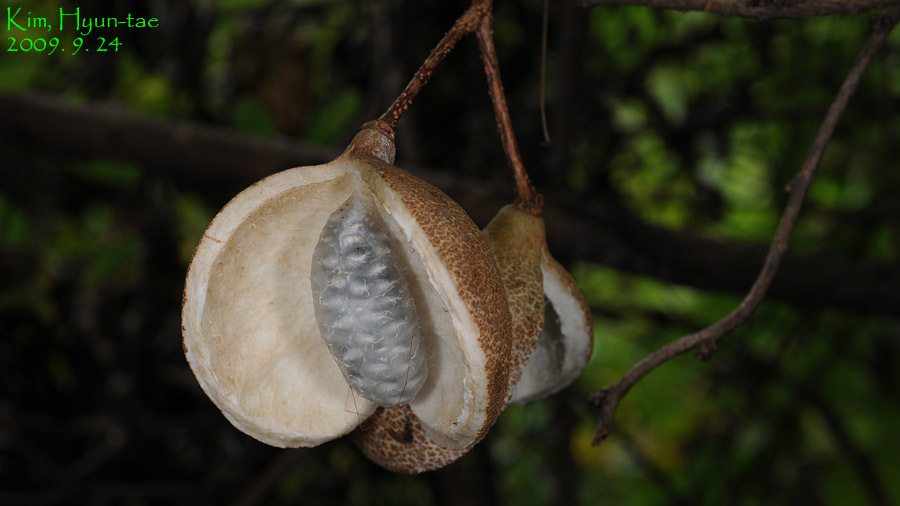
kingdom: Plantae
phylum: Tracheophyta
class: Magnoliopsida
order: Ranunculales
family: Lardizabalaceae
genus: Akebia
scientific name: Akebia quinata
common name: Five-leaf akebia
